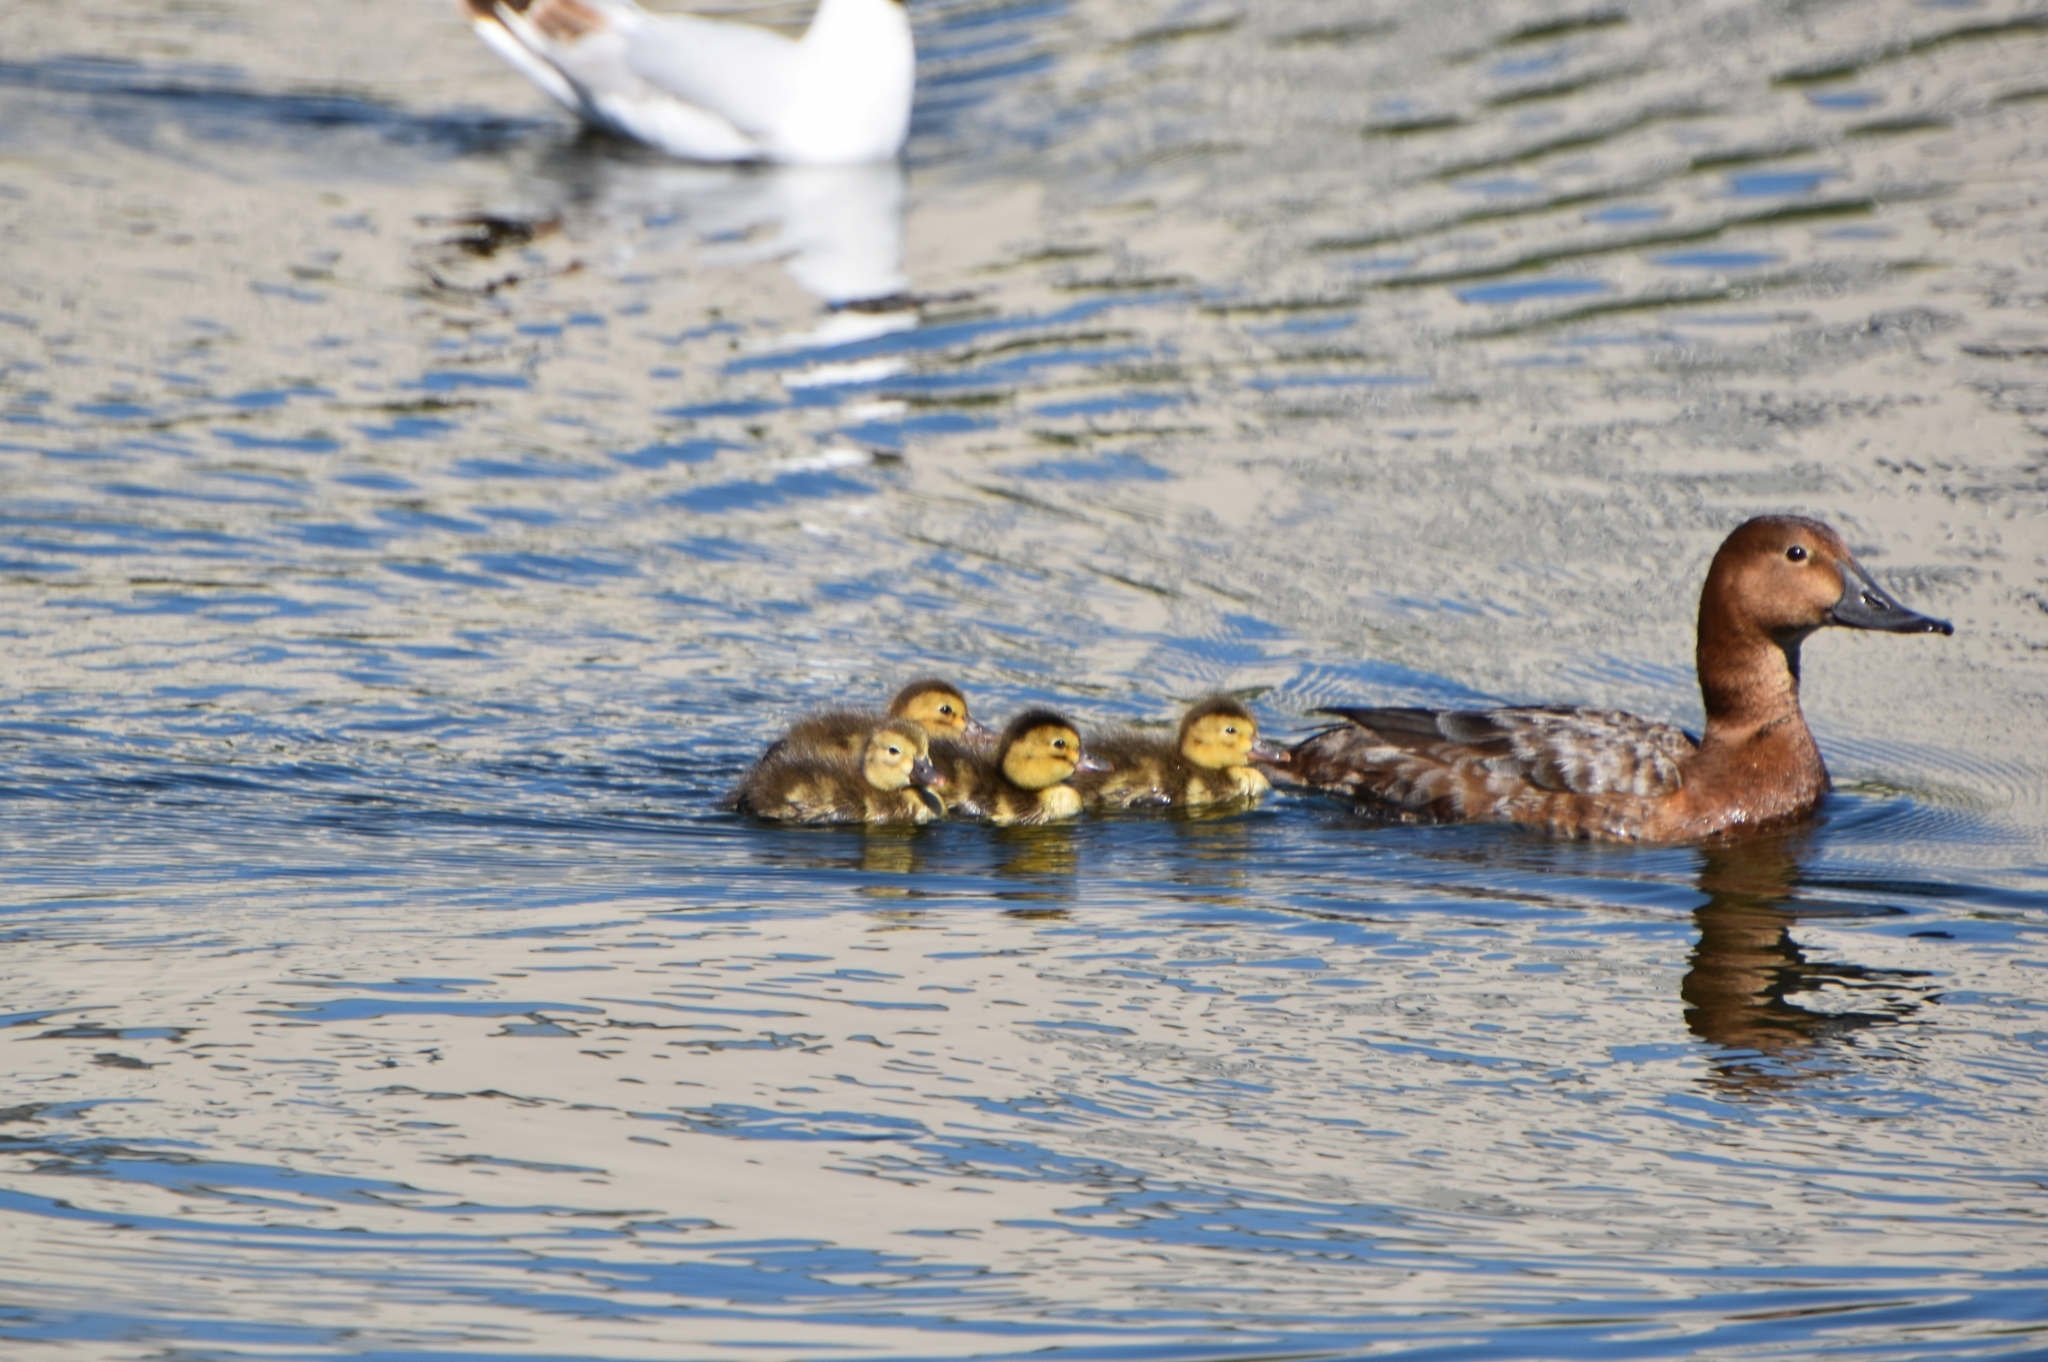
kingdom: Animalia
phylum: Chordata
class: Aves
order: Anseriformes
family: Anatidae
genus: Aythya
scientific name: Aythya ferina
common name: Common pochard
